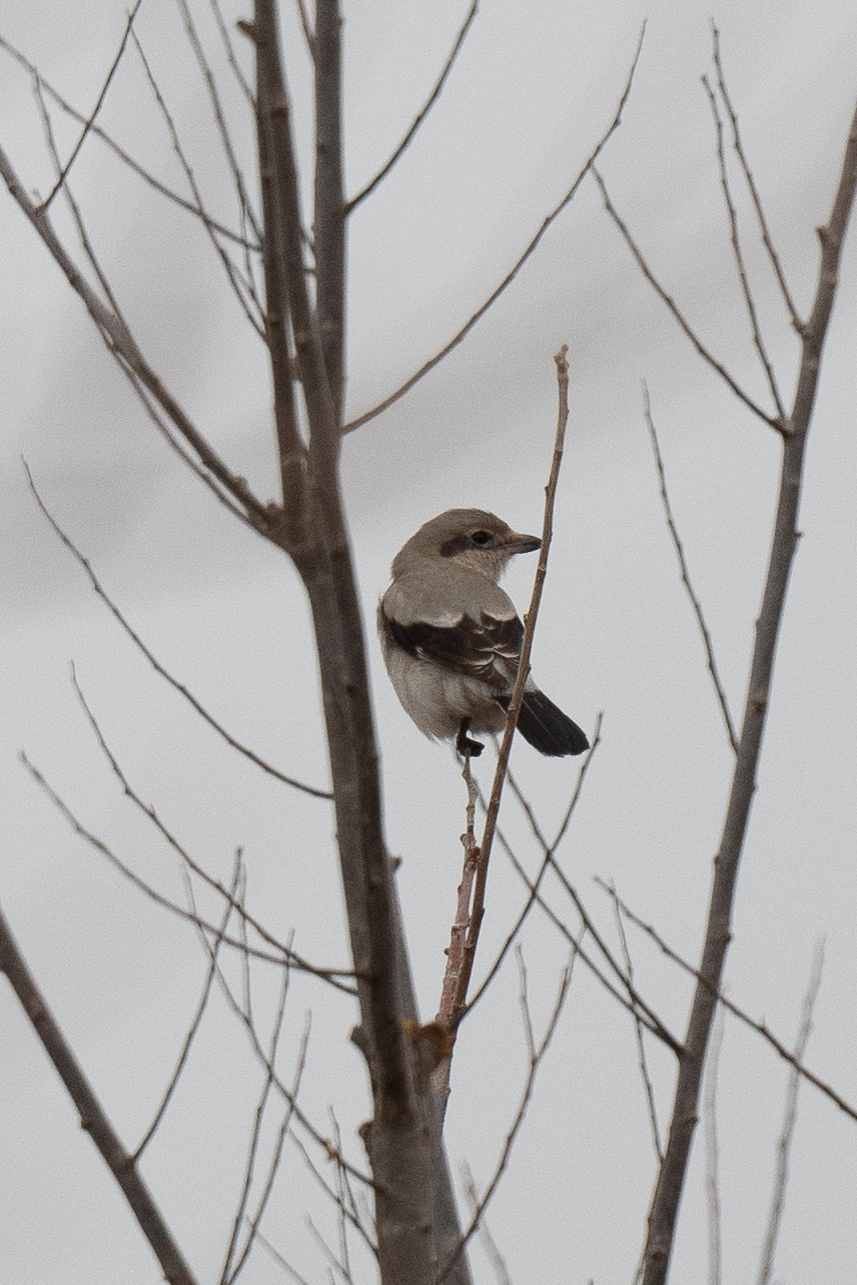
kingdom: Animalia
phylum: Chordata
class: Aves
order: Passeriformes
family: Laniidae
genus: Lanius
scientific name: Lanius borealis
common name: Northern shrike
